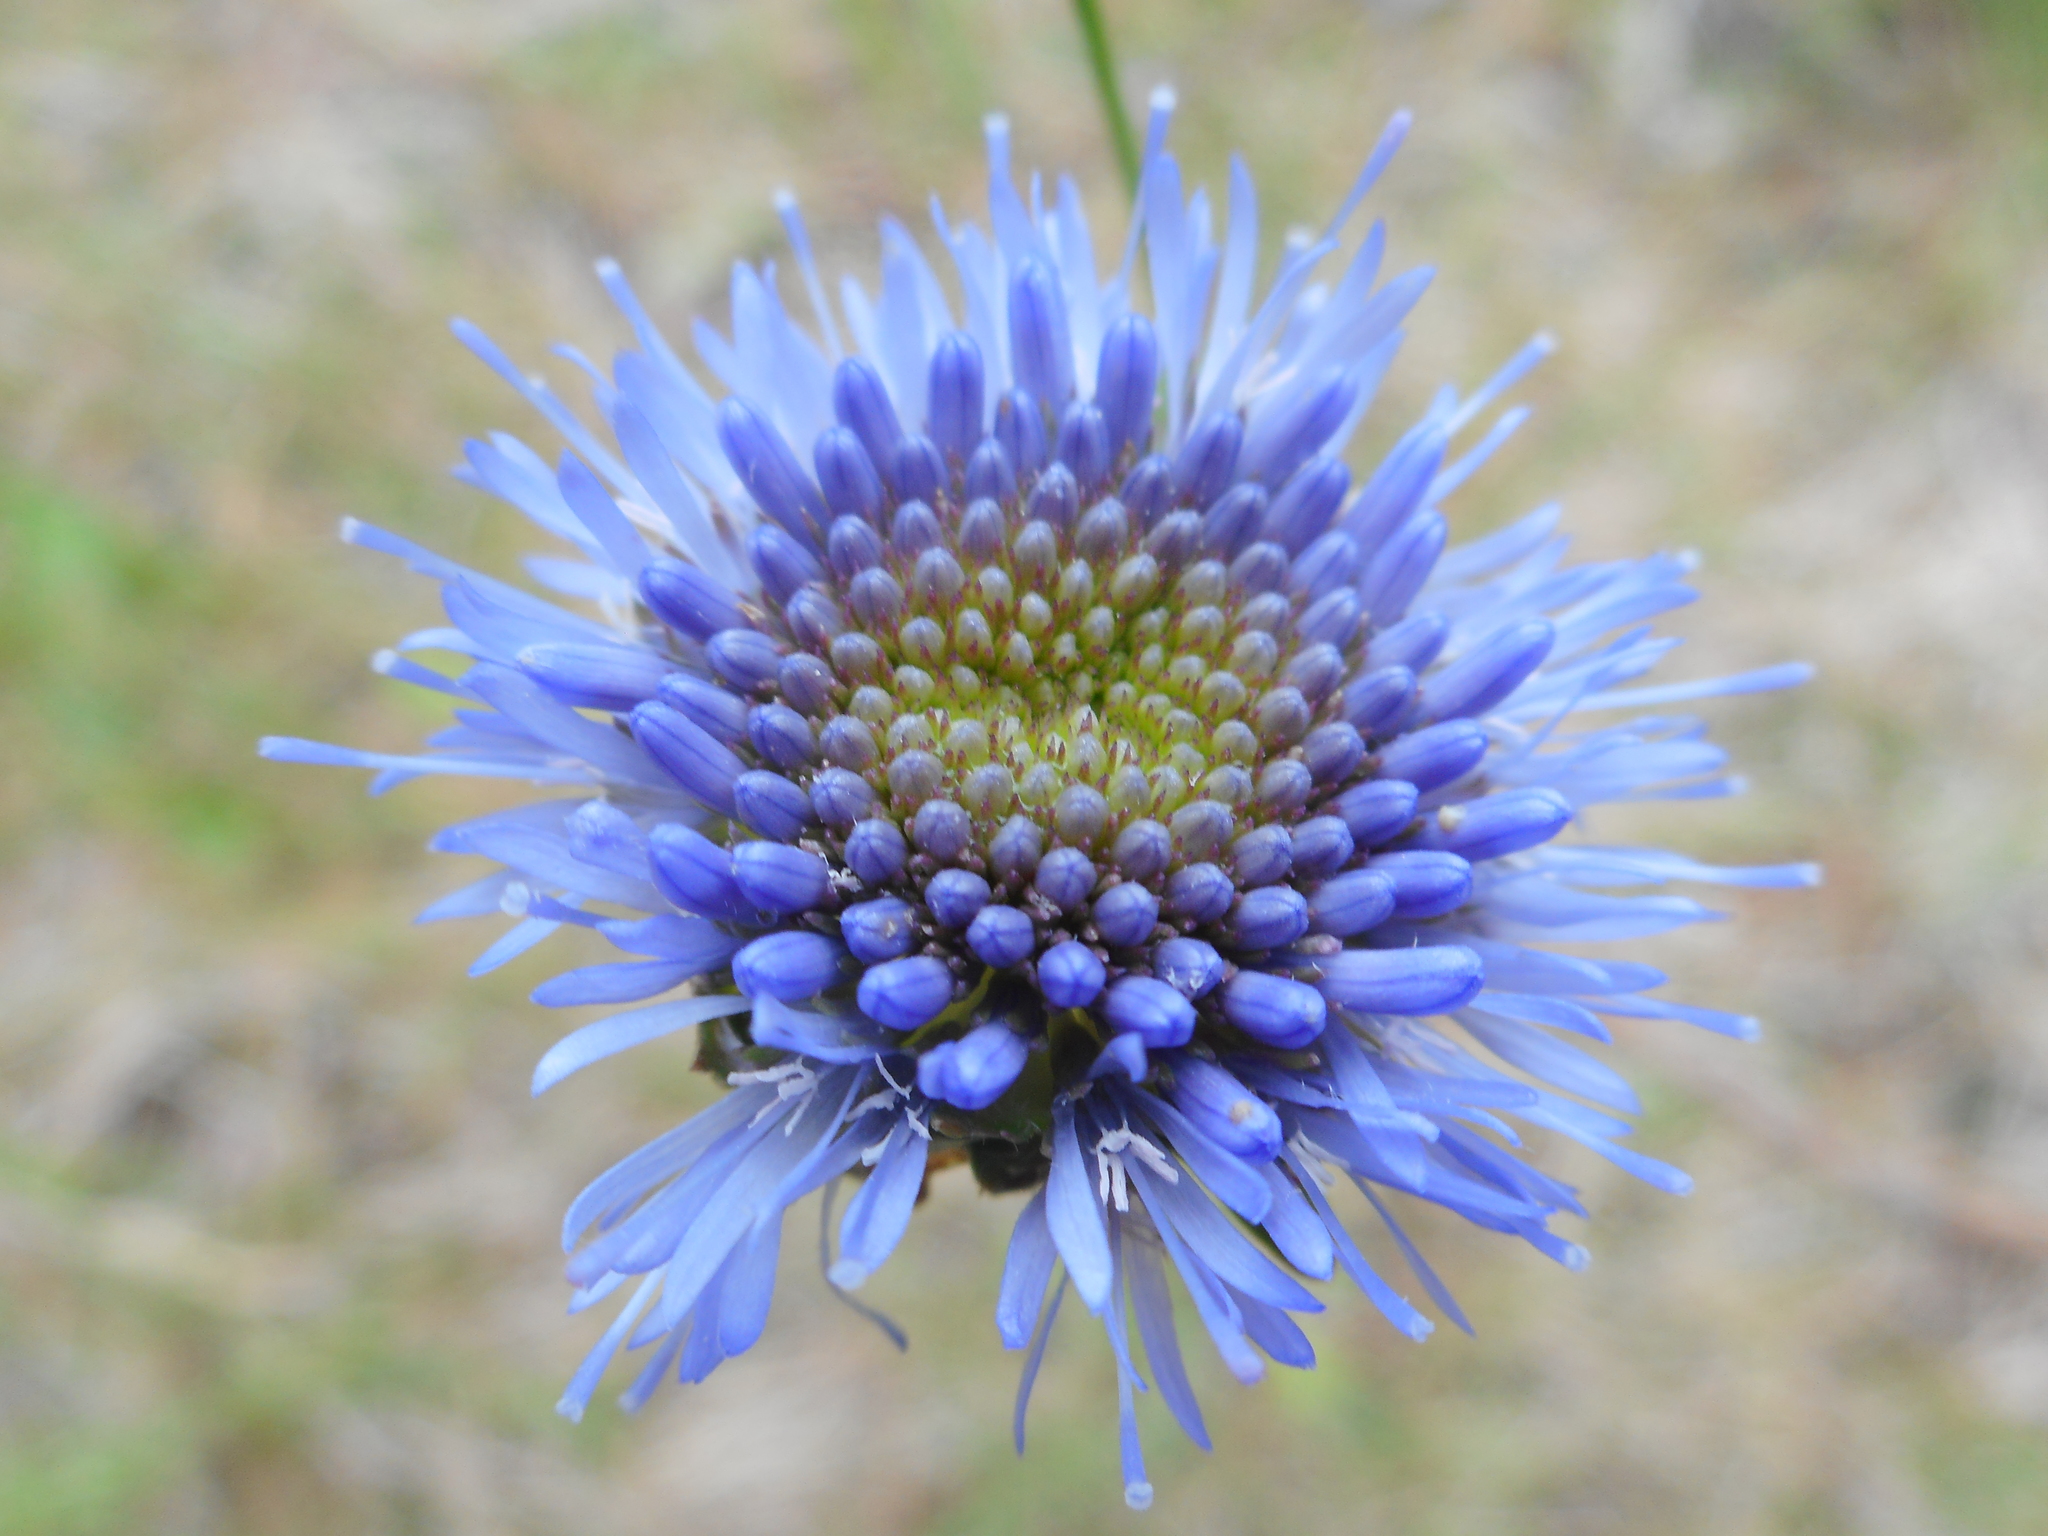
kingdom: Plantae
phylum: Tracheophyta
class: Magnoliopsida
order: Asterales
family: Campanulaceae
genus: Jasione
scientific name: Jasione montana
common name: Sheep's-bit
